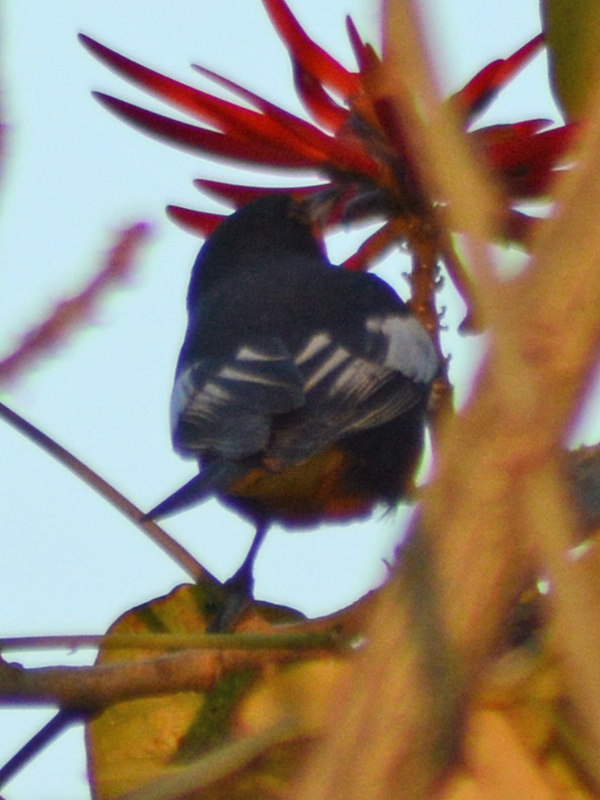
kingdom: Animalia
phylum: Chordata
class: Aves
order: Passeriformes
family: Icteridae
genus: Icterus
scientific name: Icterus abeillei
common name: Black-backed oriole
